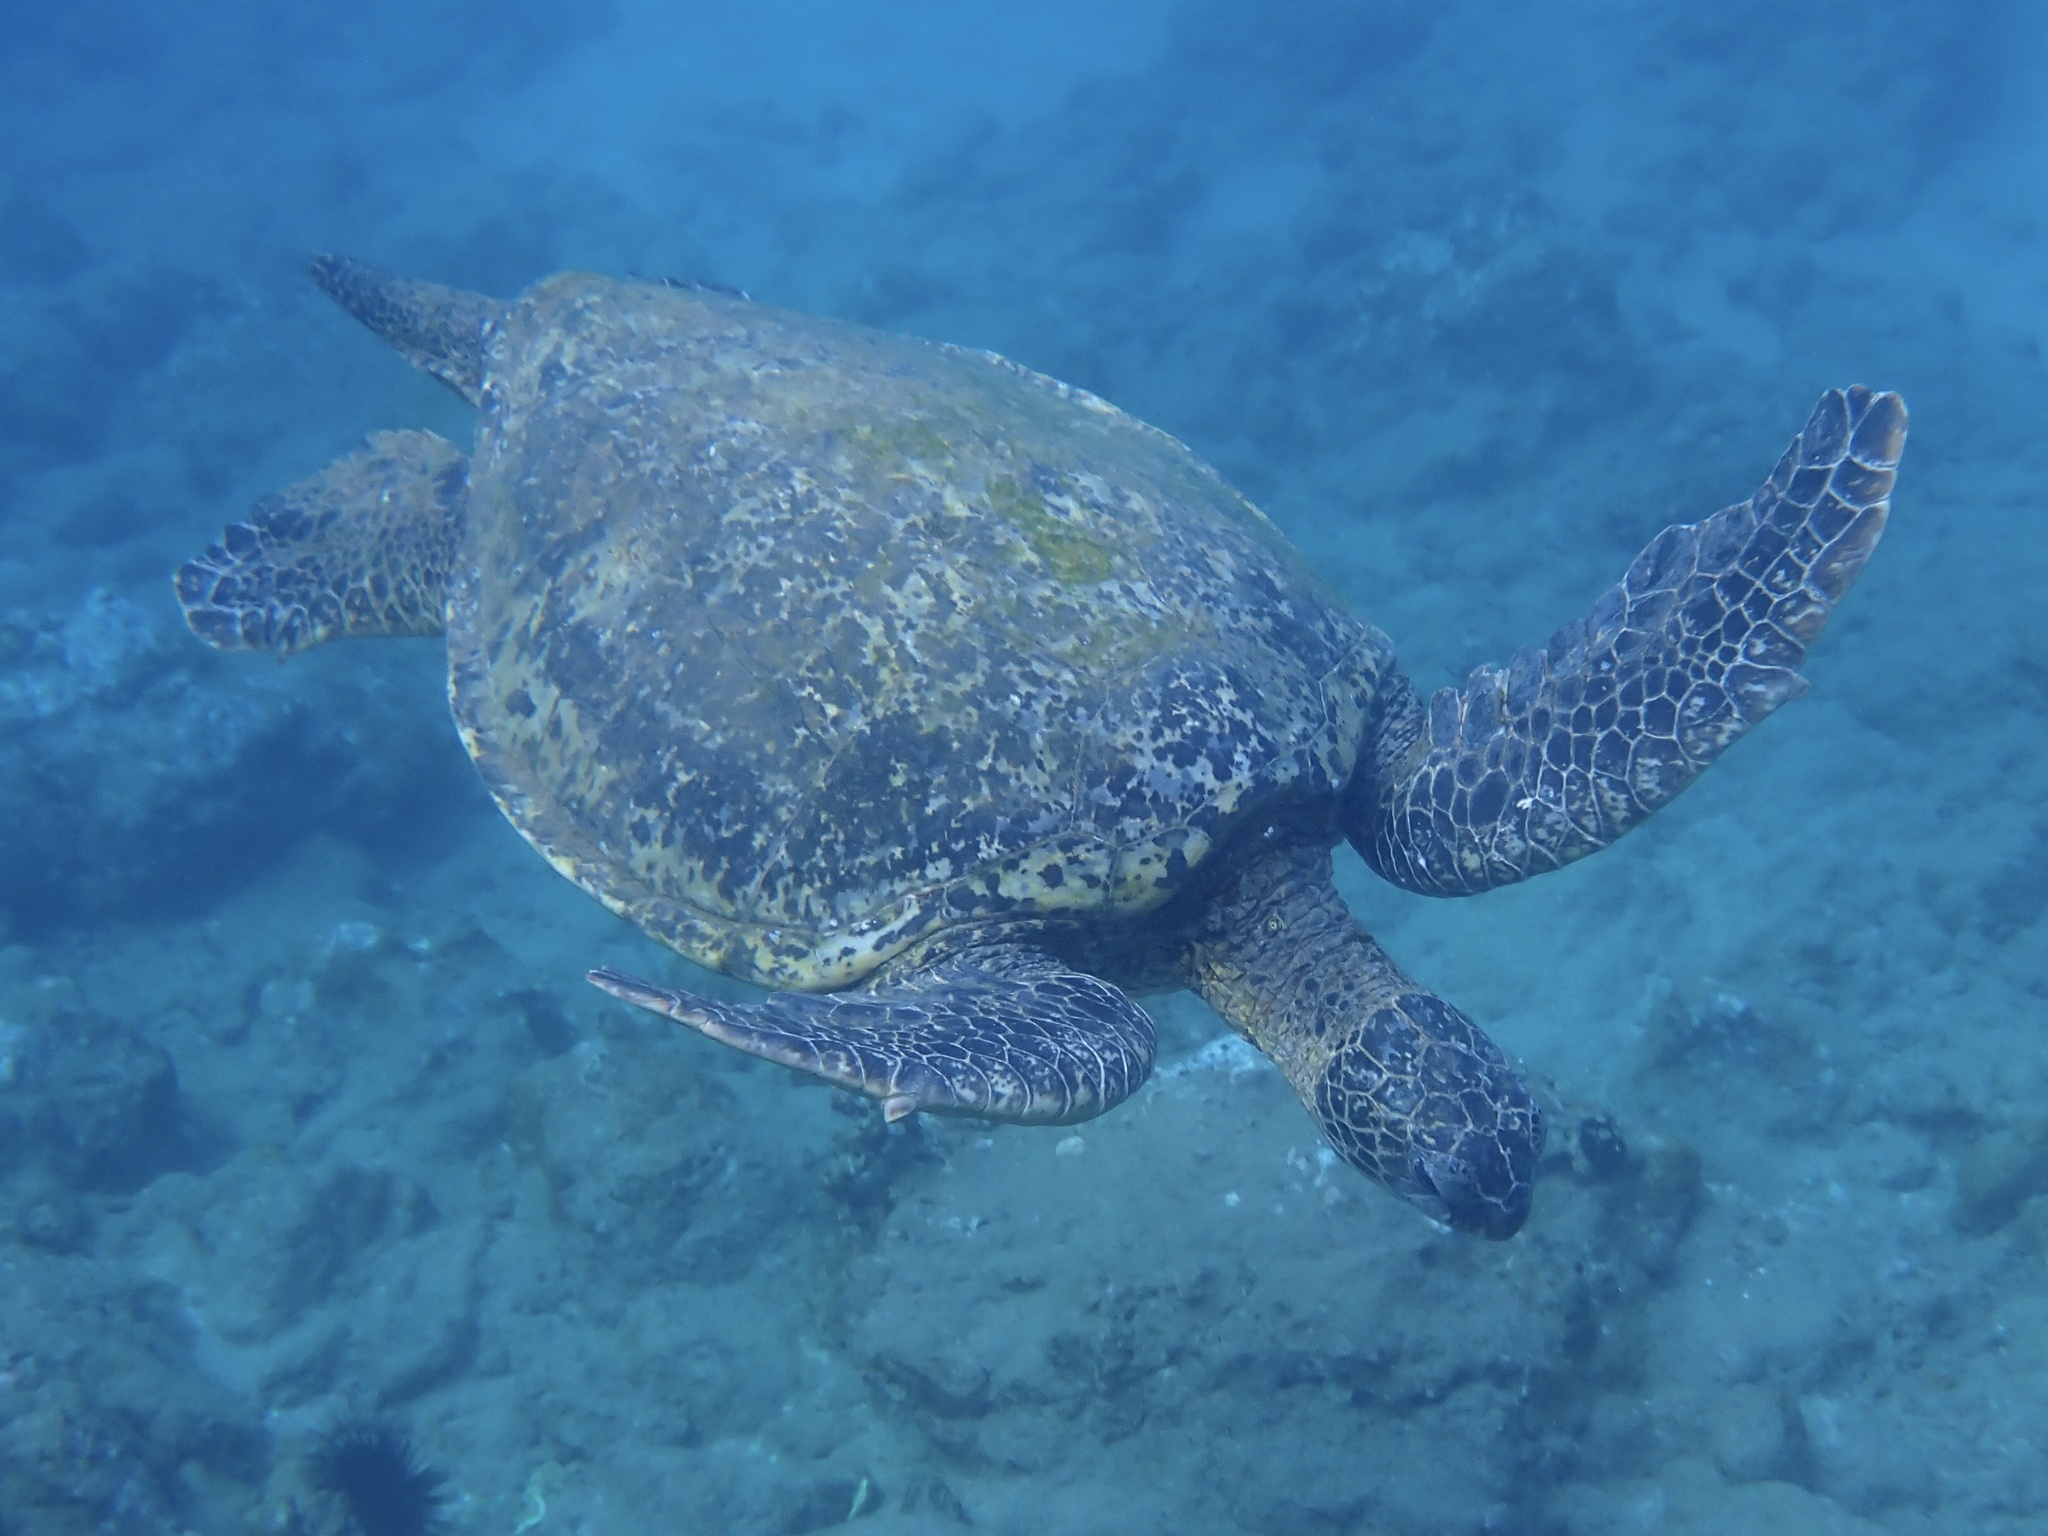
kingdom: Animalia
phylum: Chordata
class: Testudines
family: Cheloniidae
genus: Chelonia
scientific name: Chelonia mydas
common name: Green turtle
